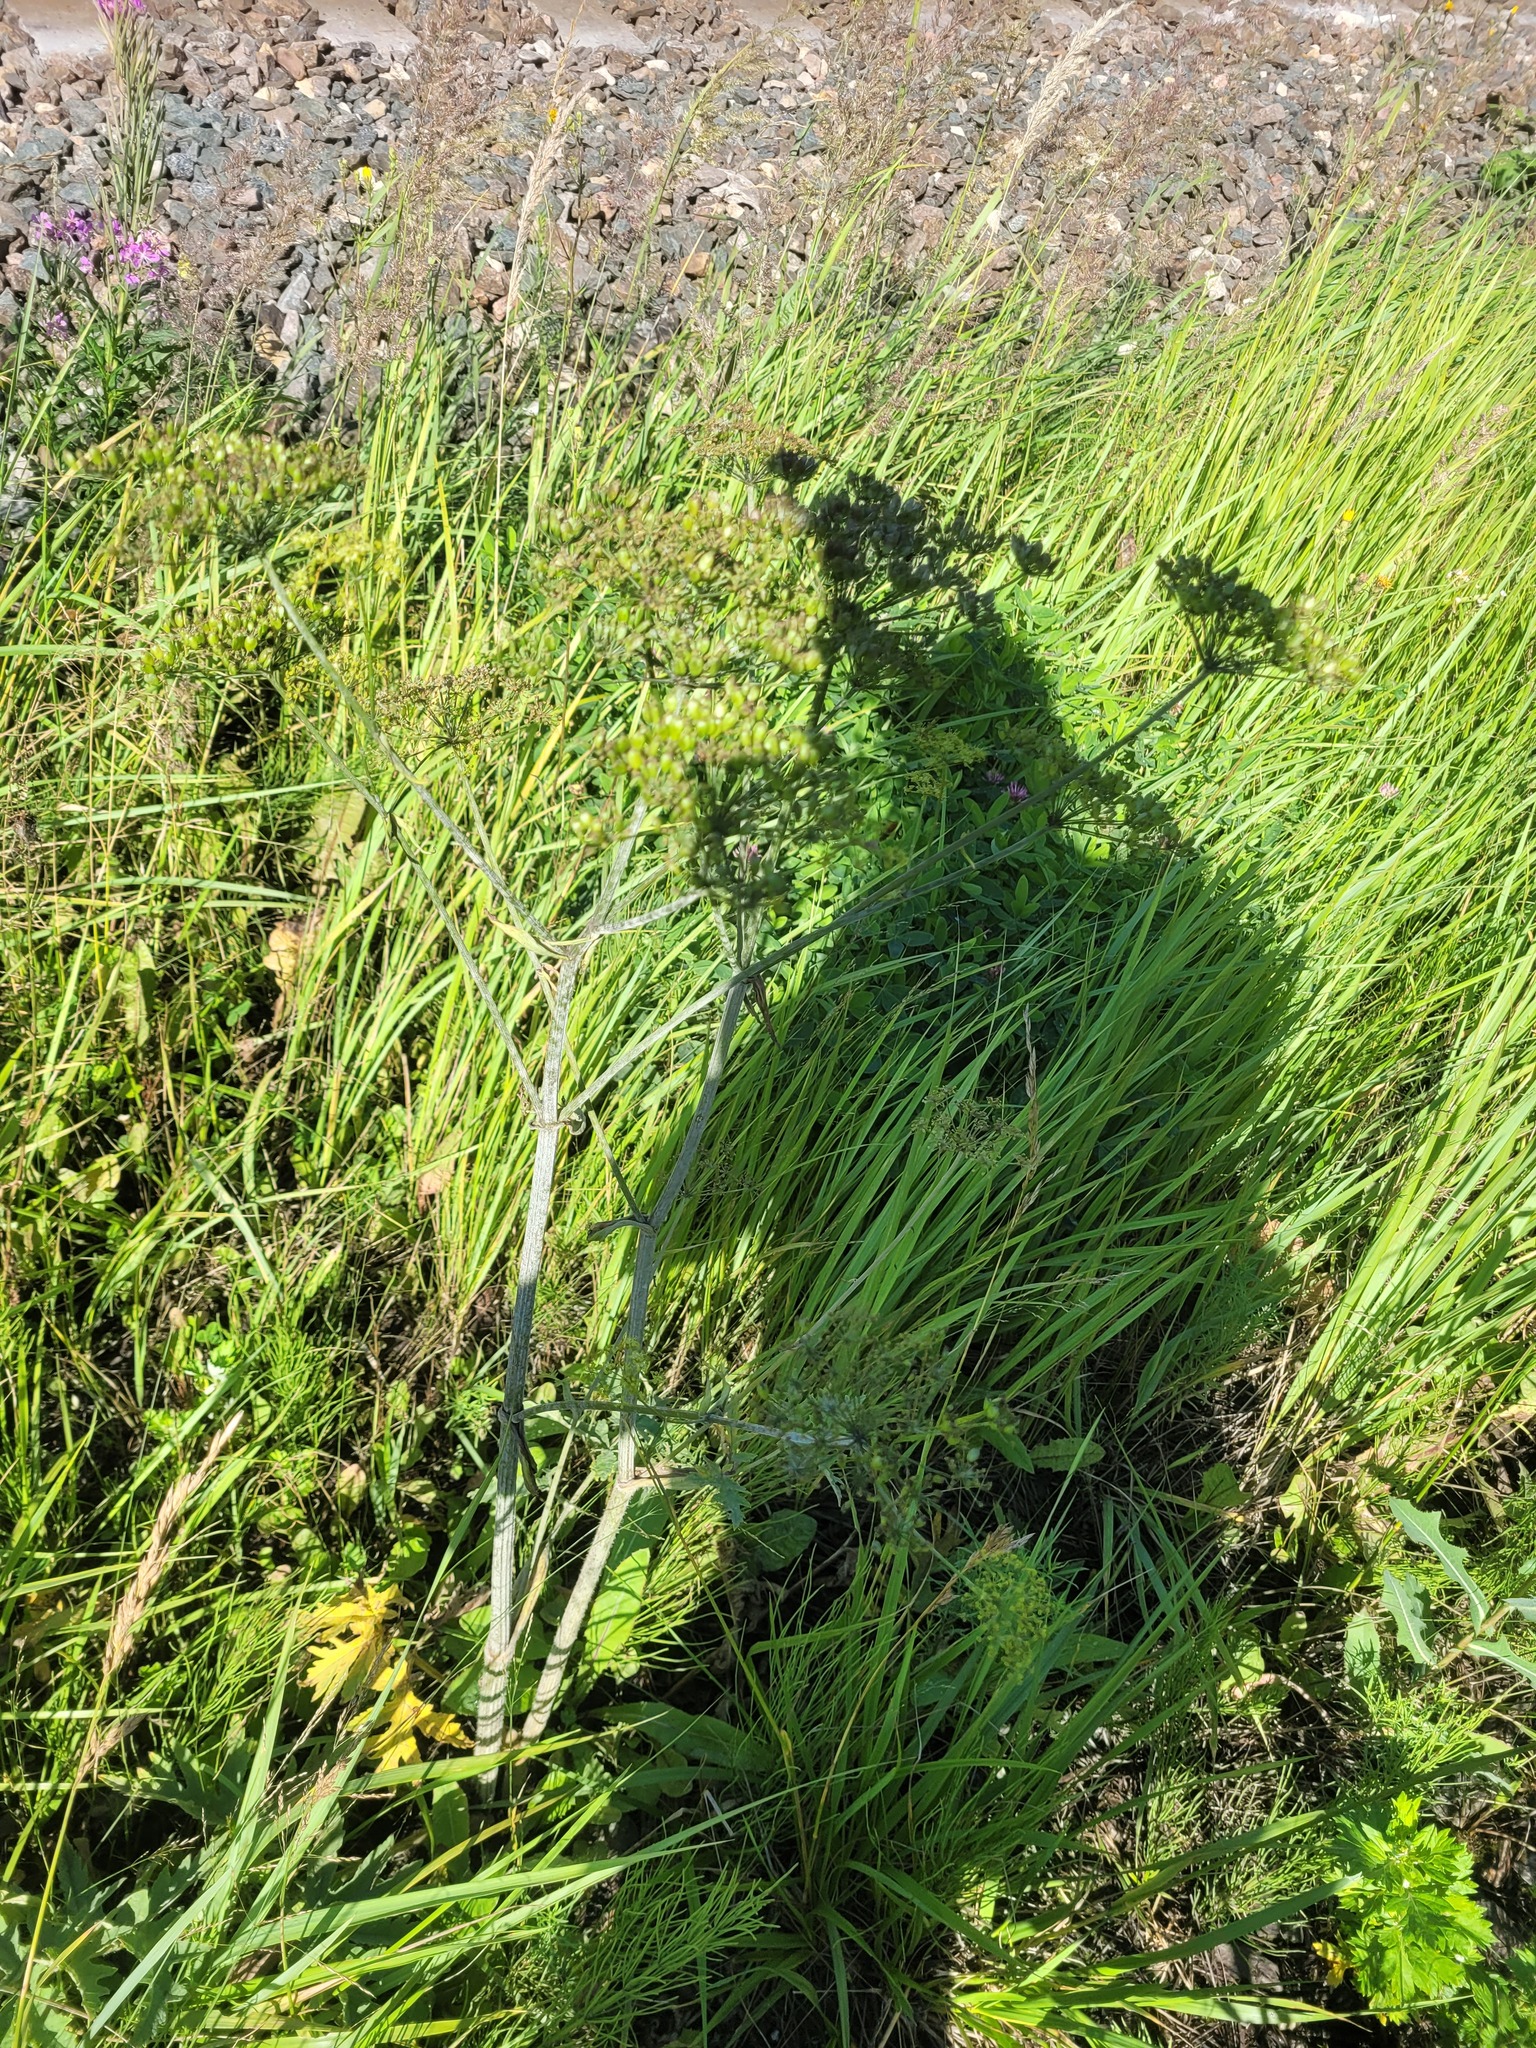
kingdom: Plantae
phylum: Tracheophyta
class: Magnoliopsida
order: Apiales
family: Apiaceae
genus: Heracleum
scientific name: Heracleum sphondylium
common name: Hogweed
